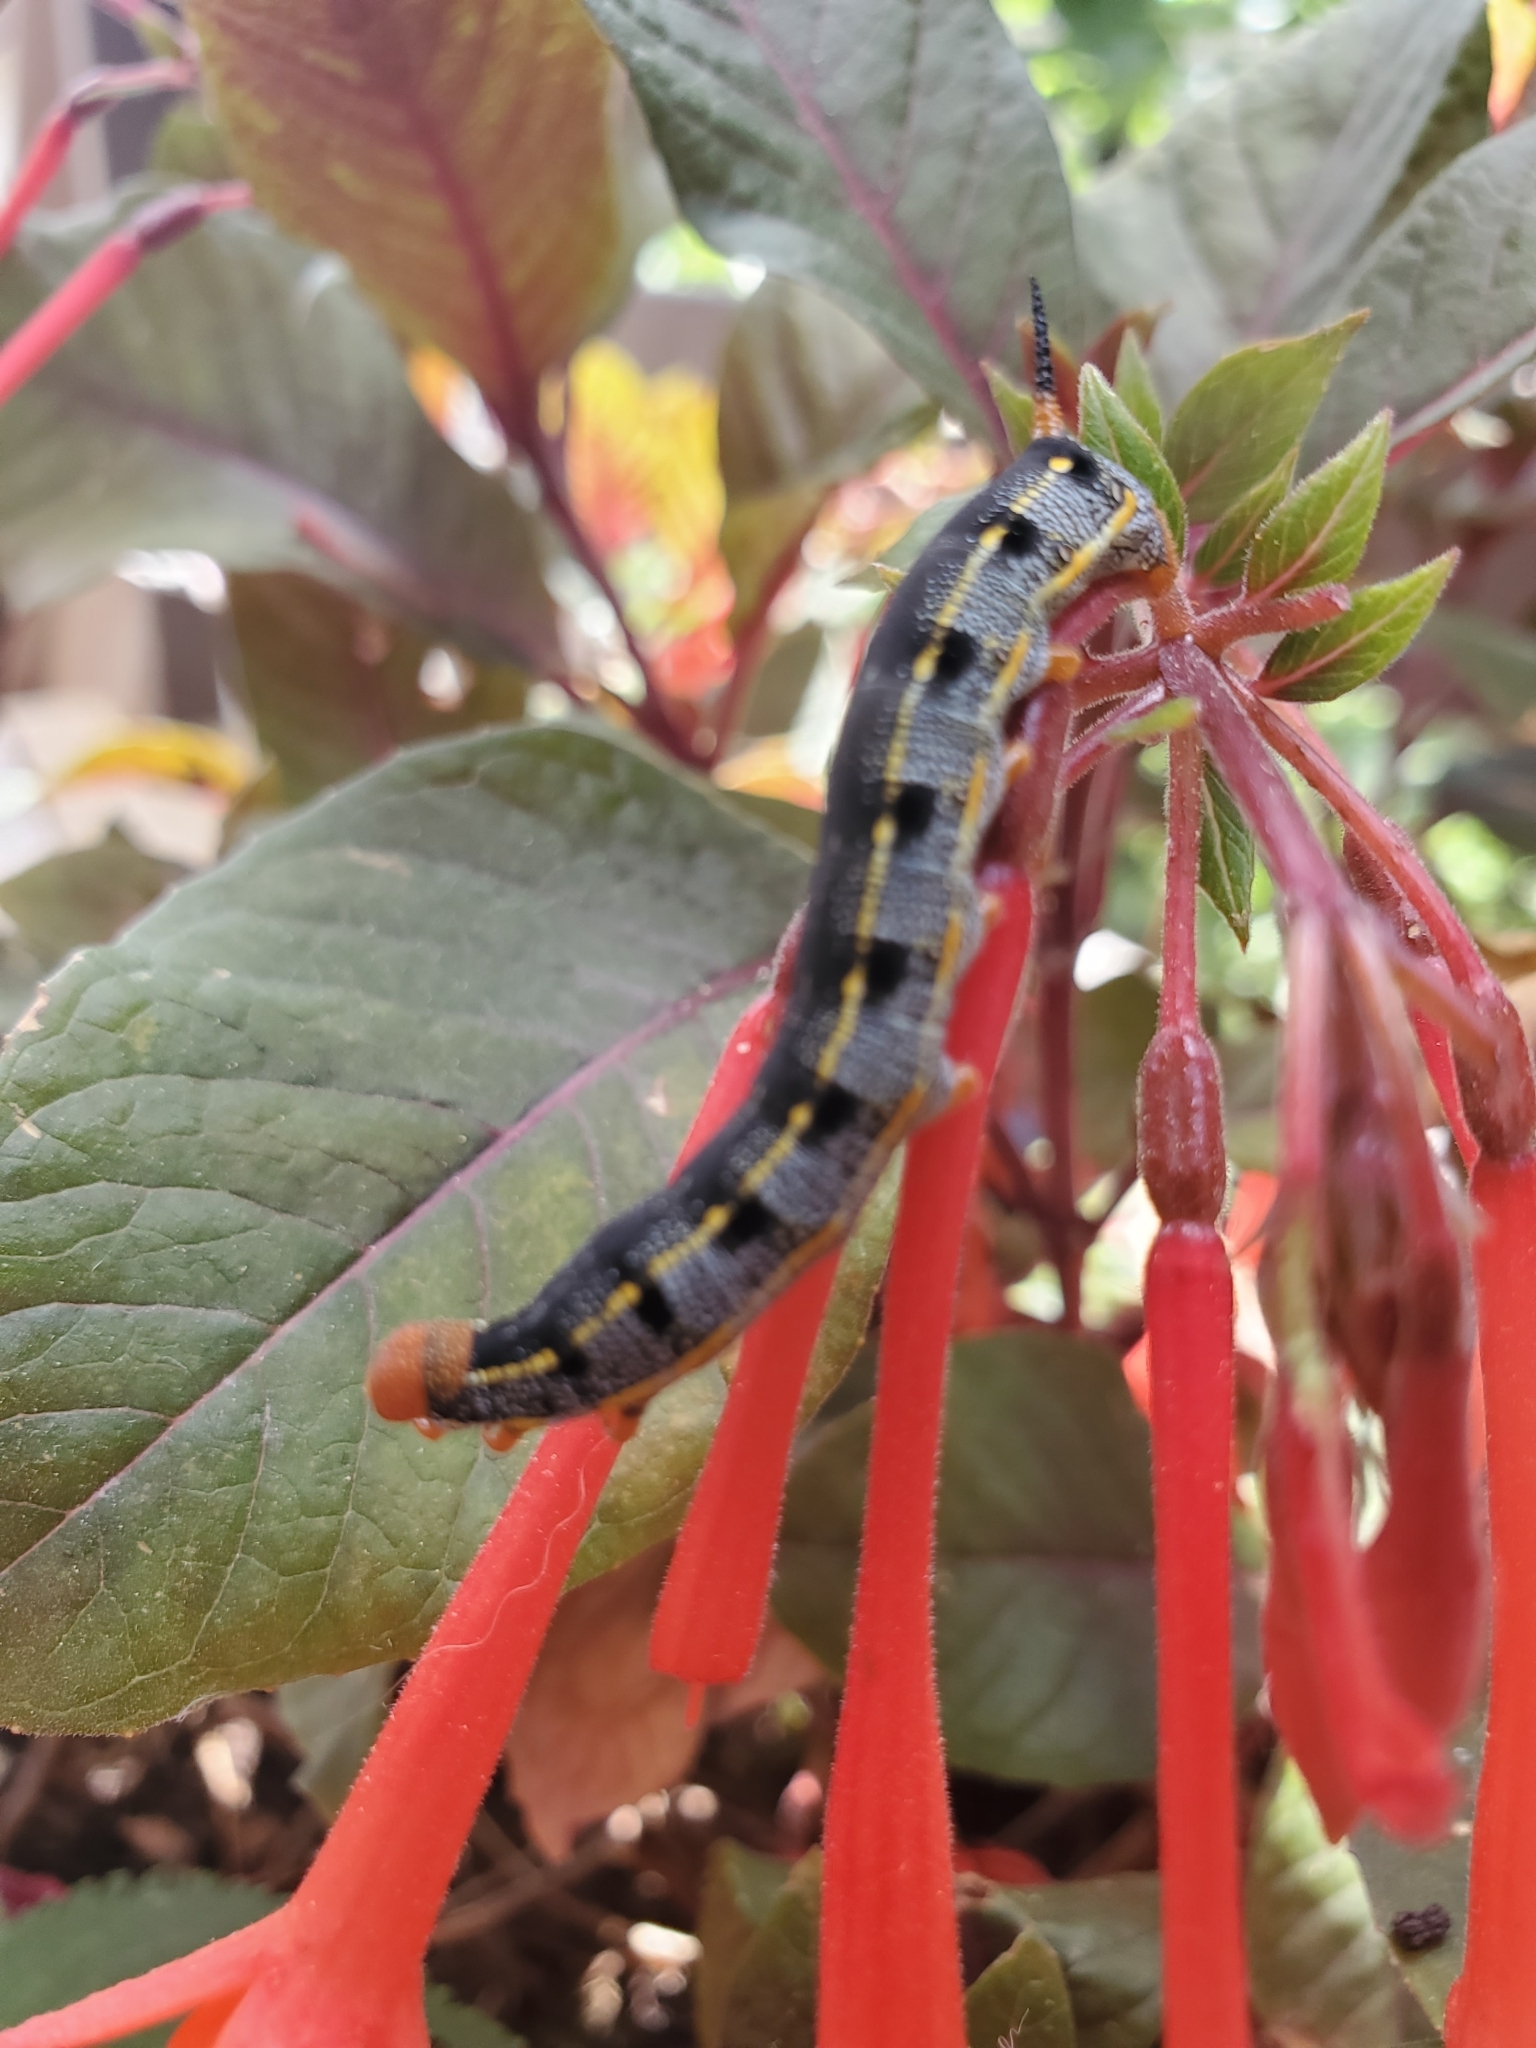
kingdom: Animalia
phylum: Arthropoda
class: Insecta
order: Lepidoptera
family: Sphingidae
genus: Hyles
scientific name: Hyles lineata
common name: White-lined sphinx
